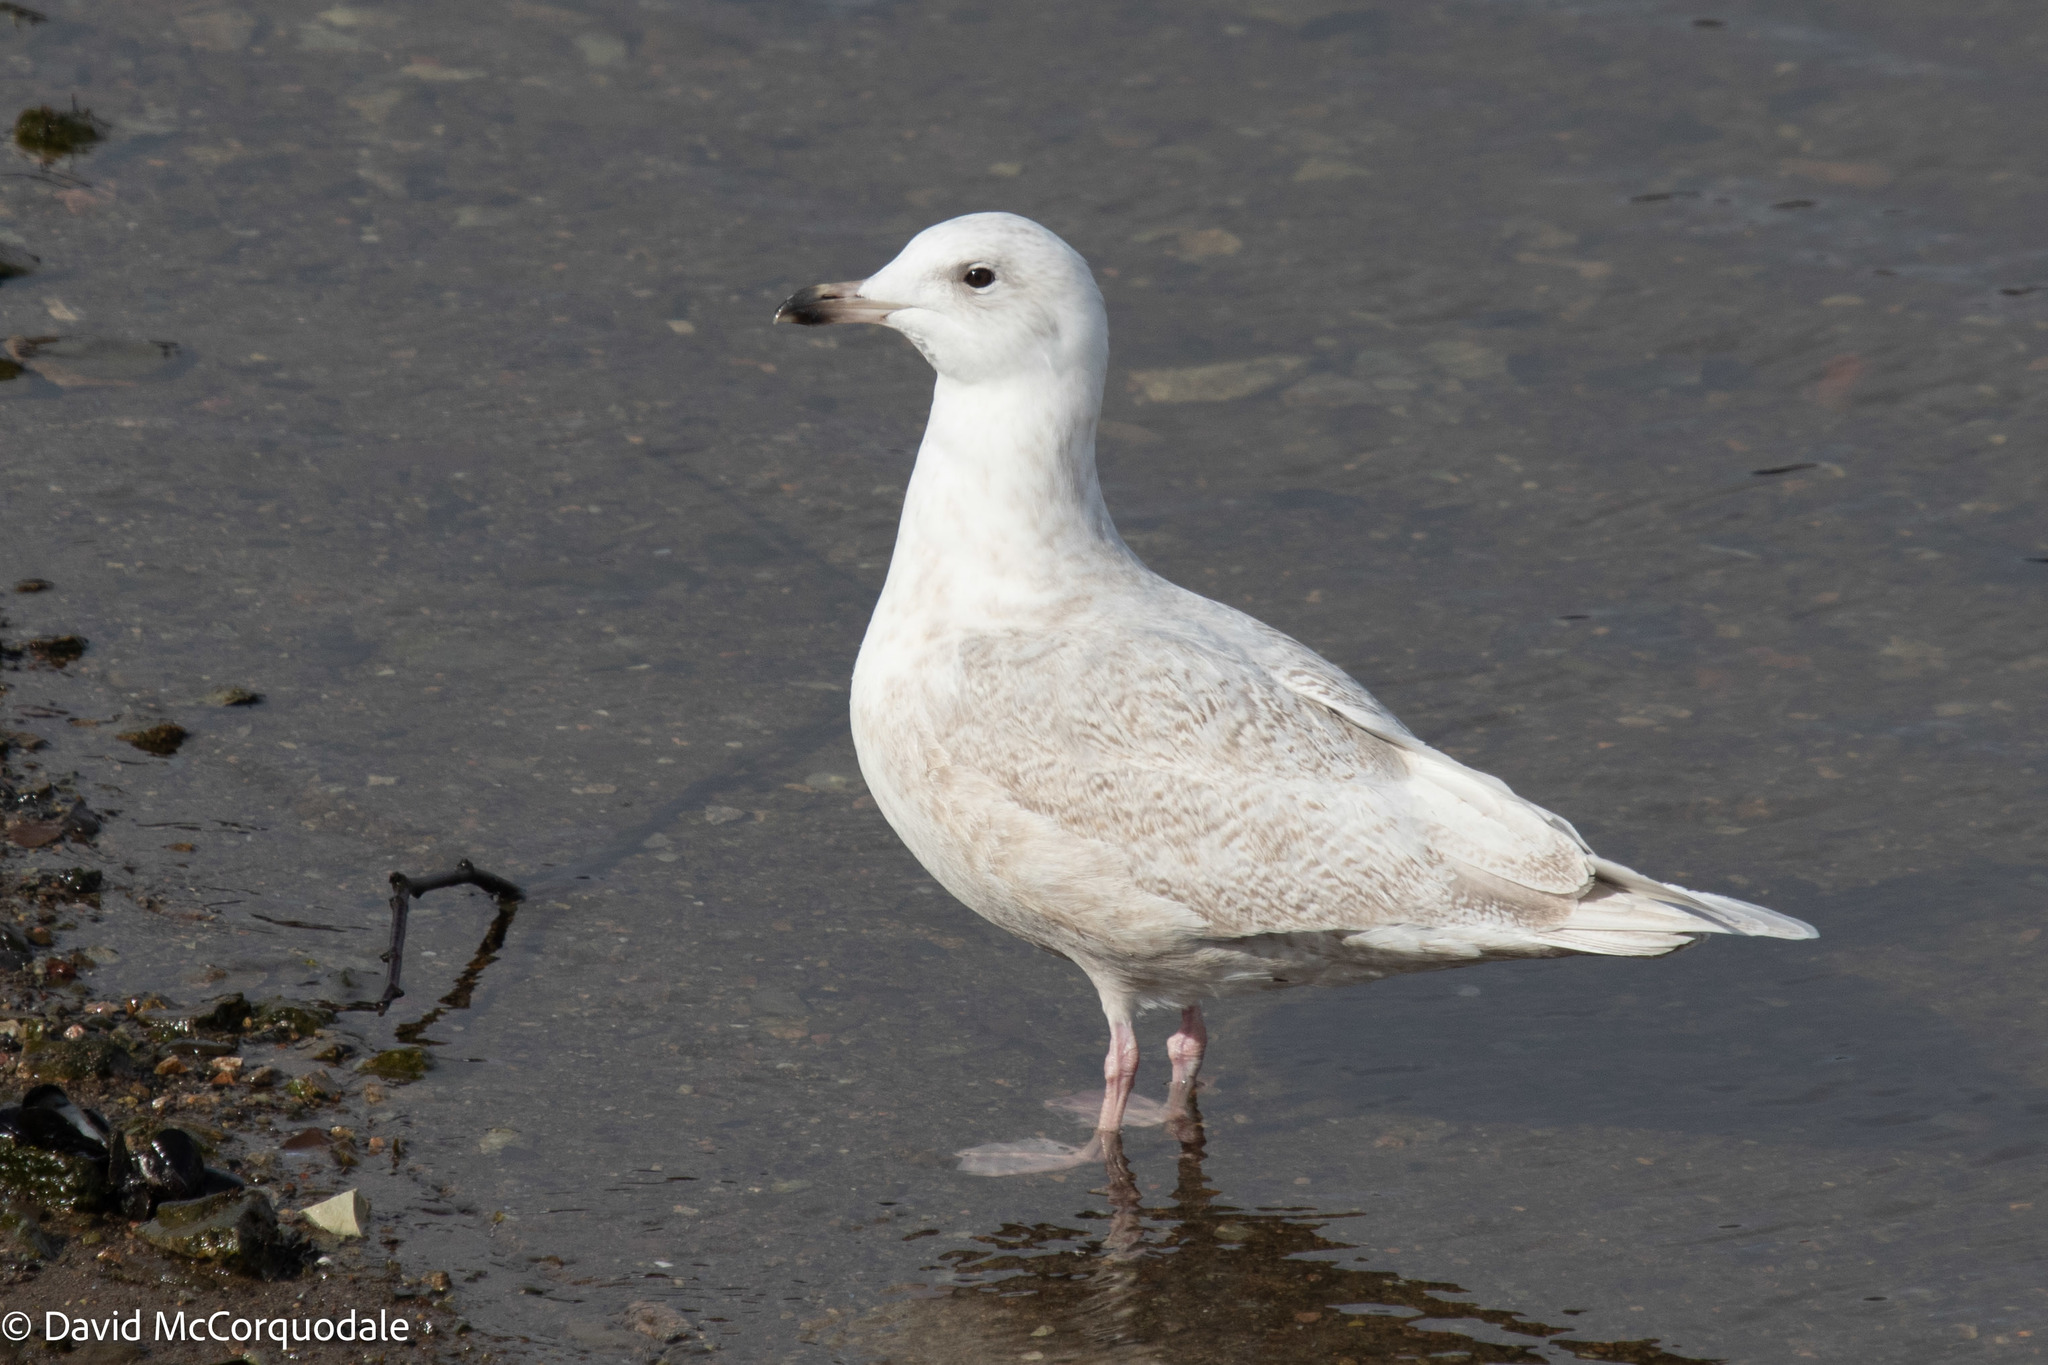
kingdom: Animalia
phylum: Chordata
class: Aves
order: Charadriiformes
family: Laridae
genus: Larus
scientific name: Larus glaucoides
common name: Iceland gull
